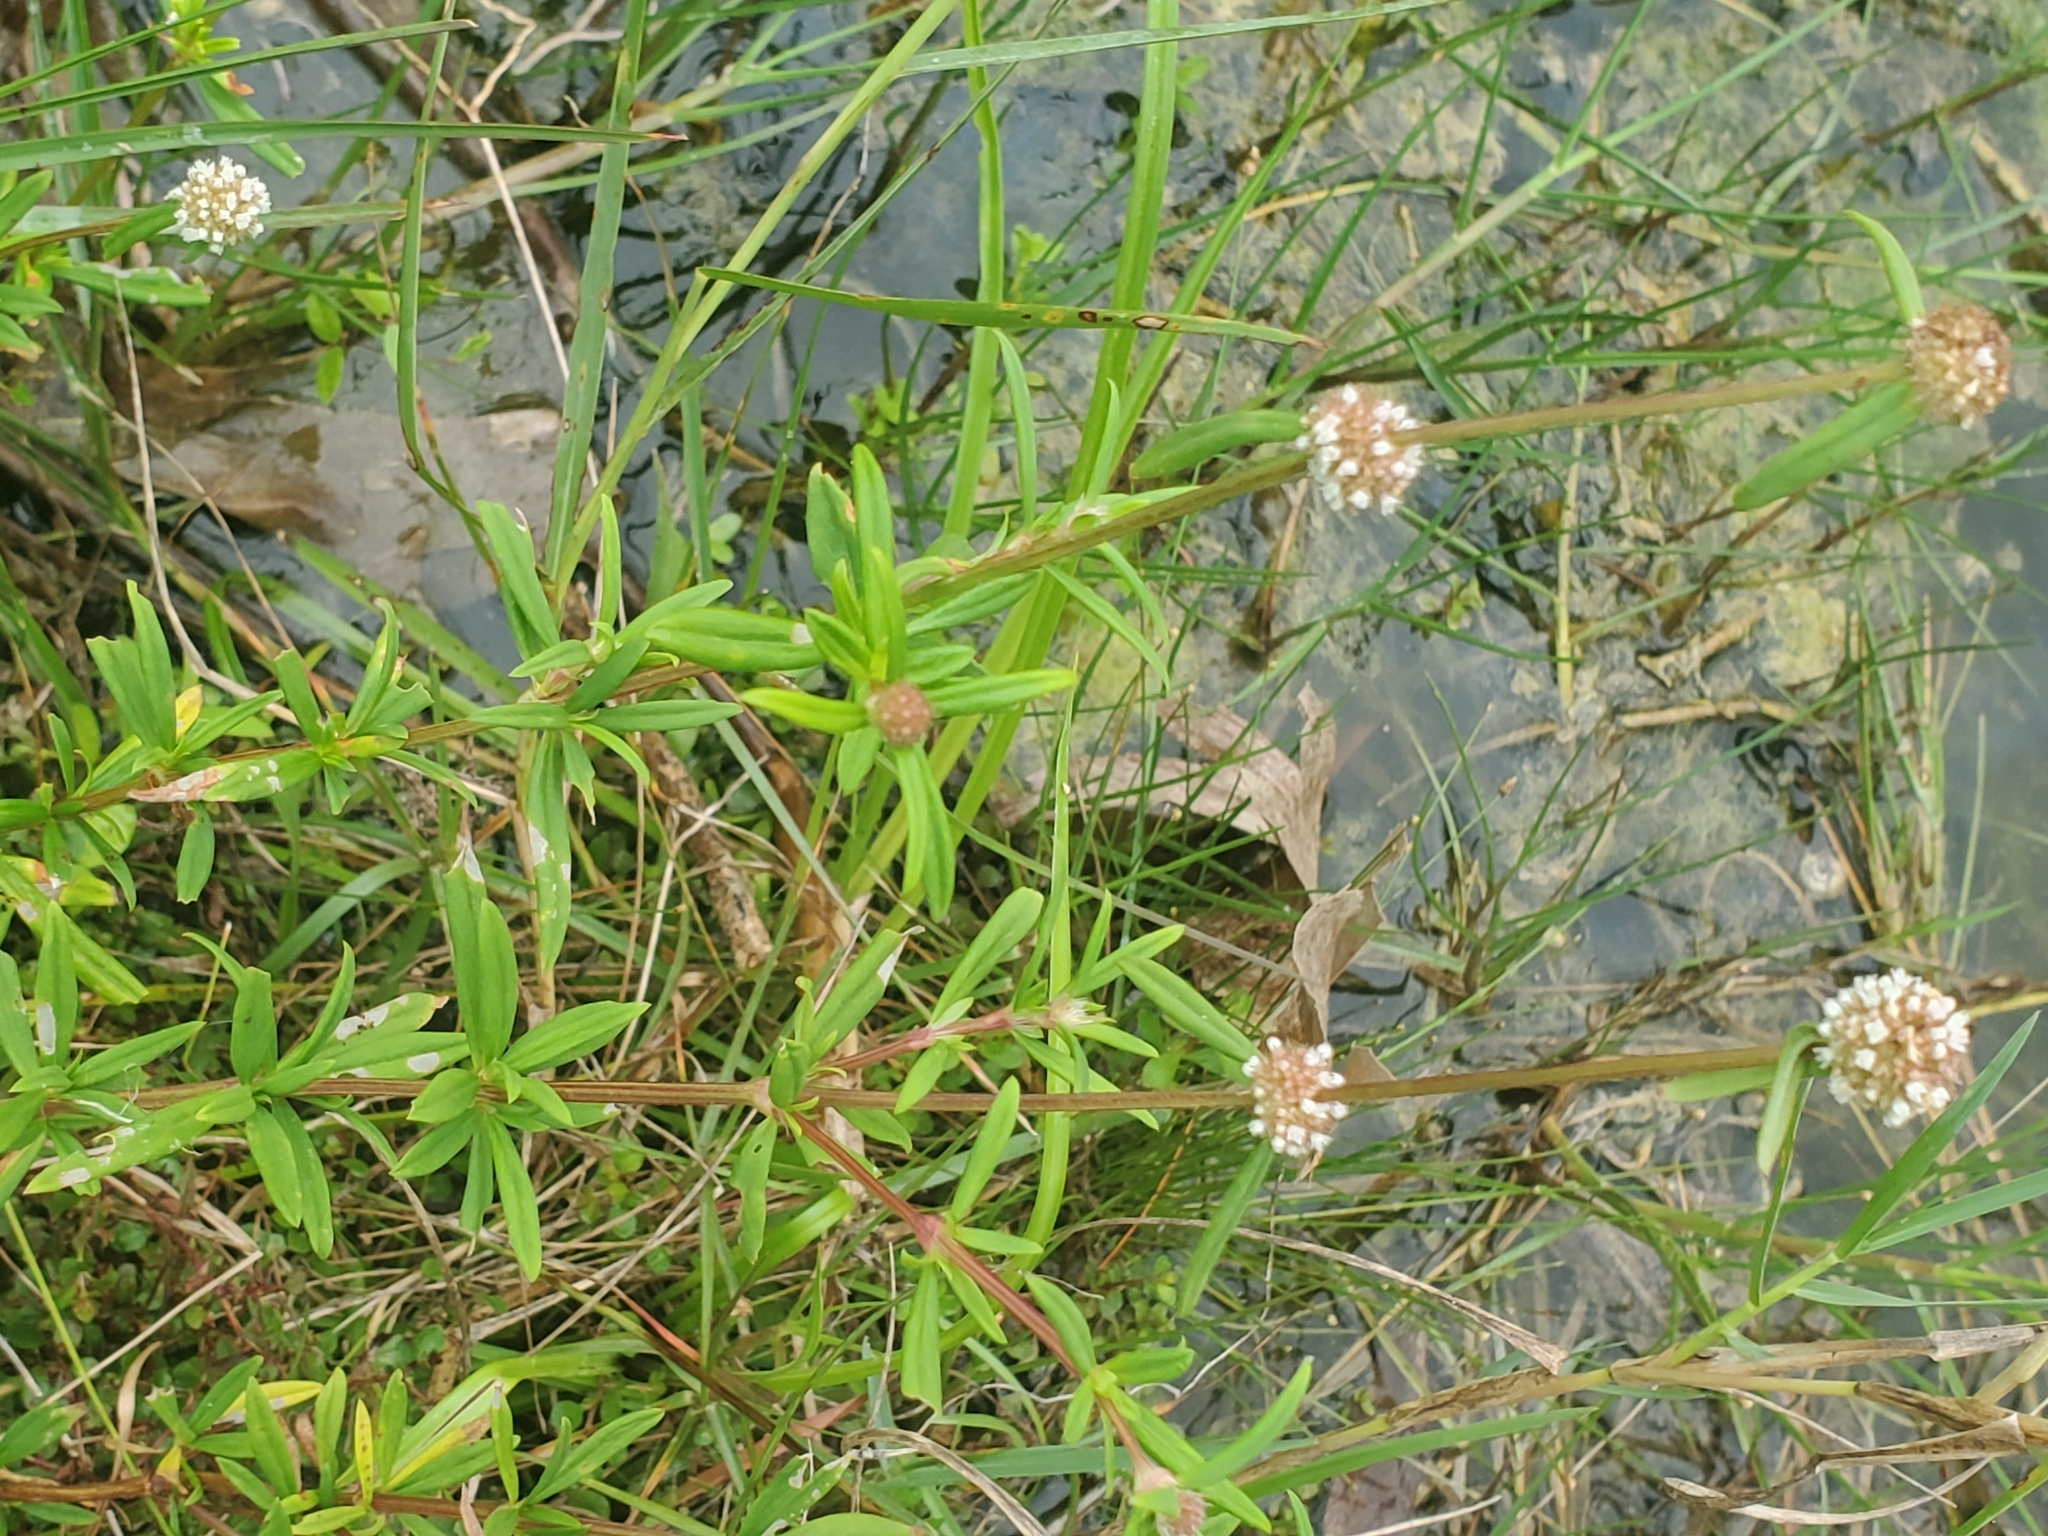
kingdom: Plantae
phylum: Tracheophyta
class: Magnoliopsida
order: Gentianales
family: Rubiaceae
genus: Spermacoce
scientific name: Spermacoce verticillata
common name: Shrubby false buttonweed
